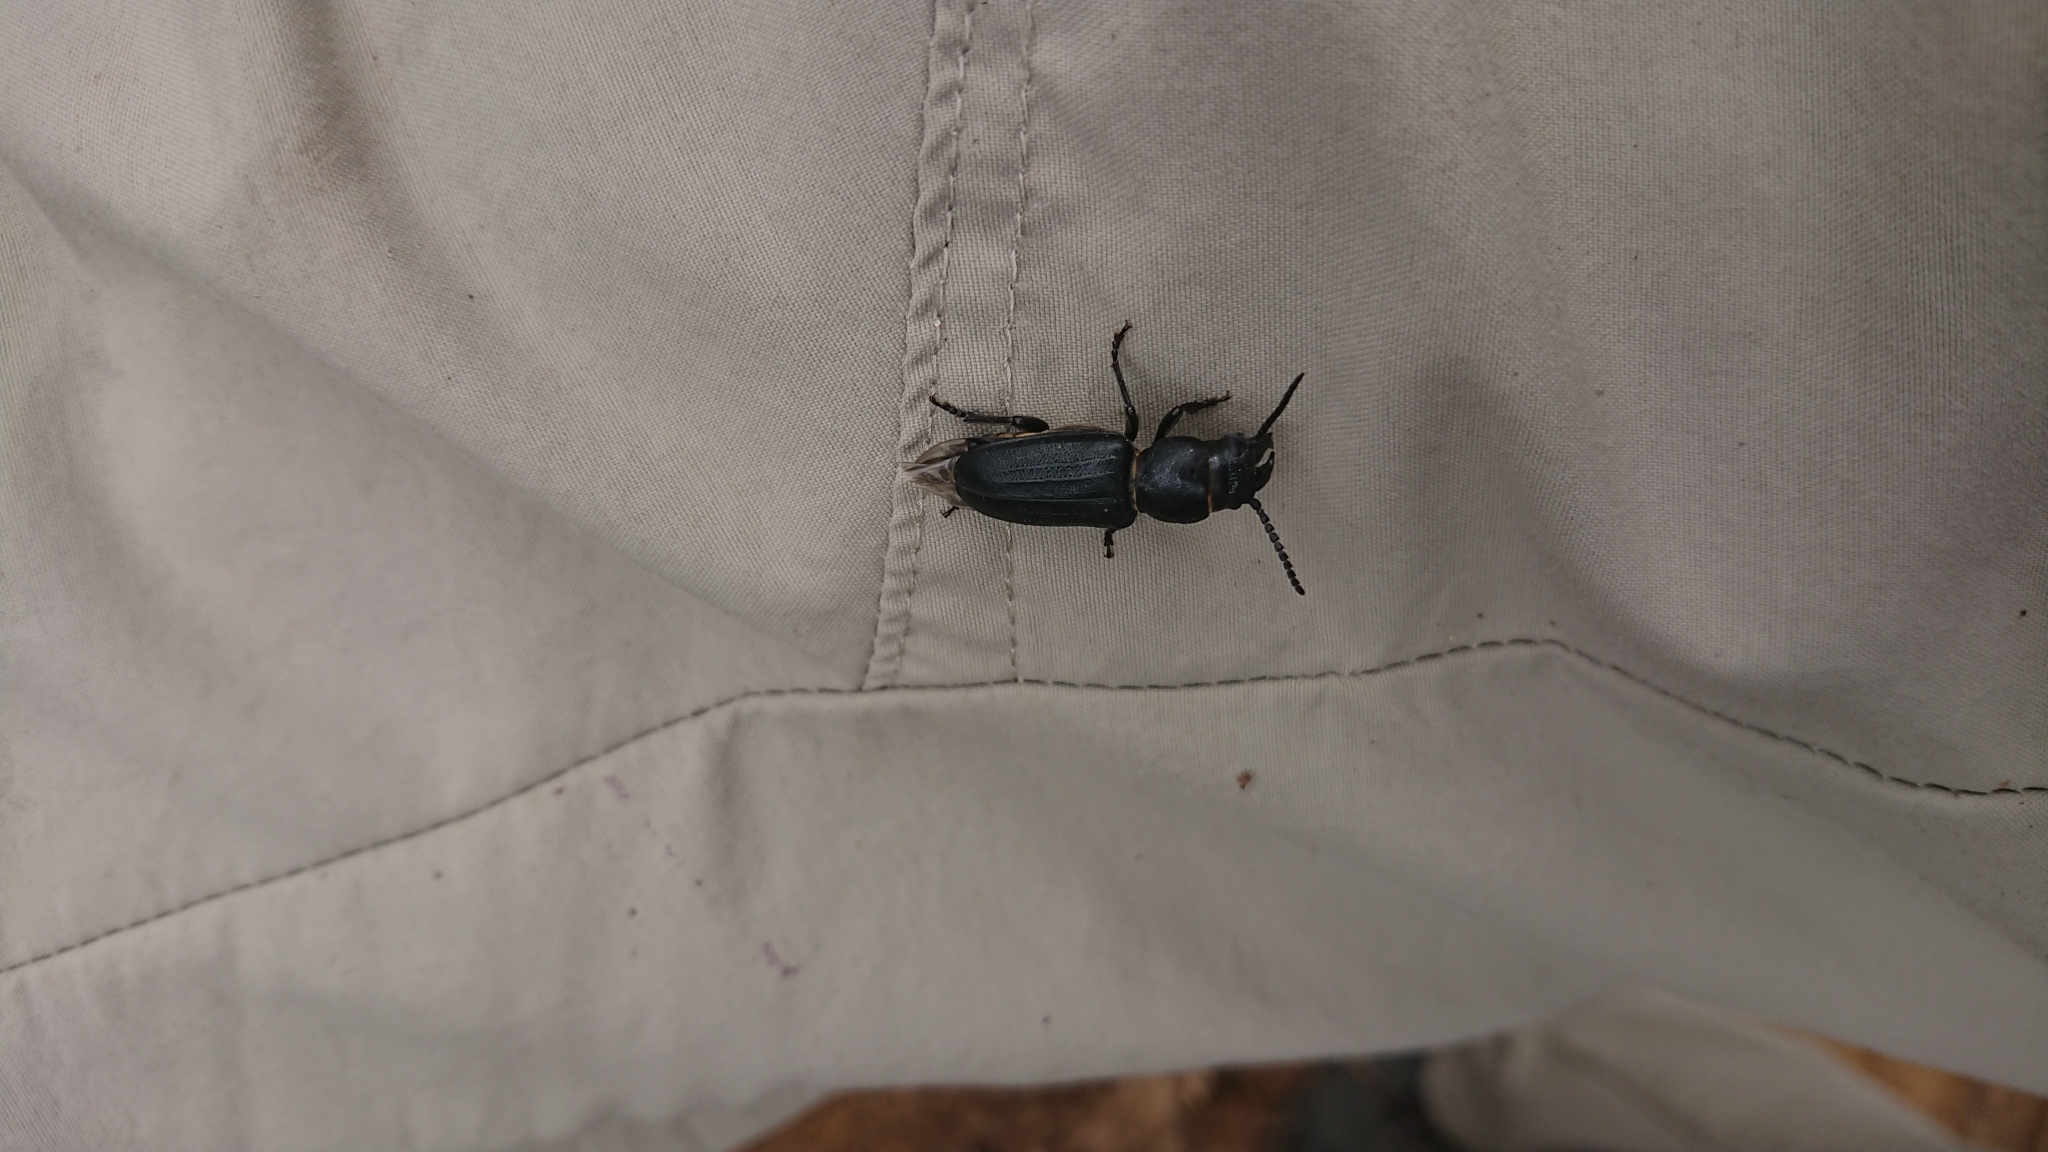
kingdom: Animalia
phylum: Arthropoda
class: Insecta
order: Coleoptera
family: Cerambycidae
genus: Spondylis
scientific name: Spondylis buprestoides
